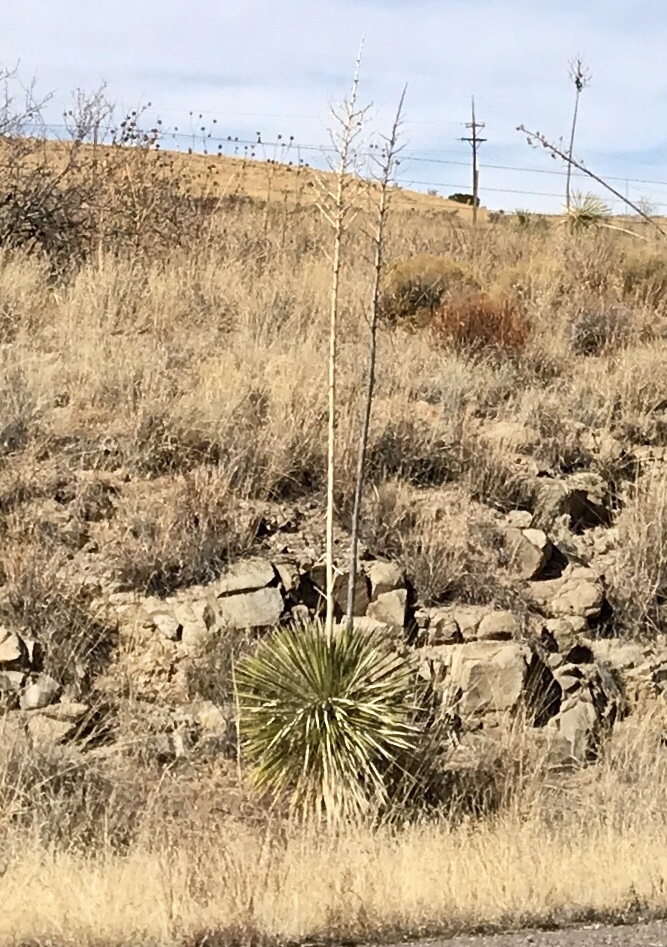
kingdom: Plantae
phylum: Tracheophyta
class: Liliopsida
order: Asparagales
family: Asparagaceae
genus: Yucca
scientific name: Yucca elata
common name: Palmella
